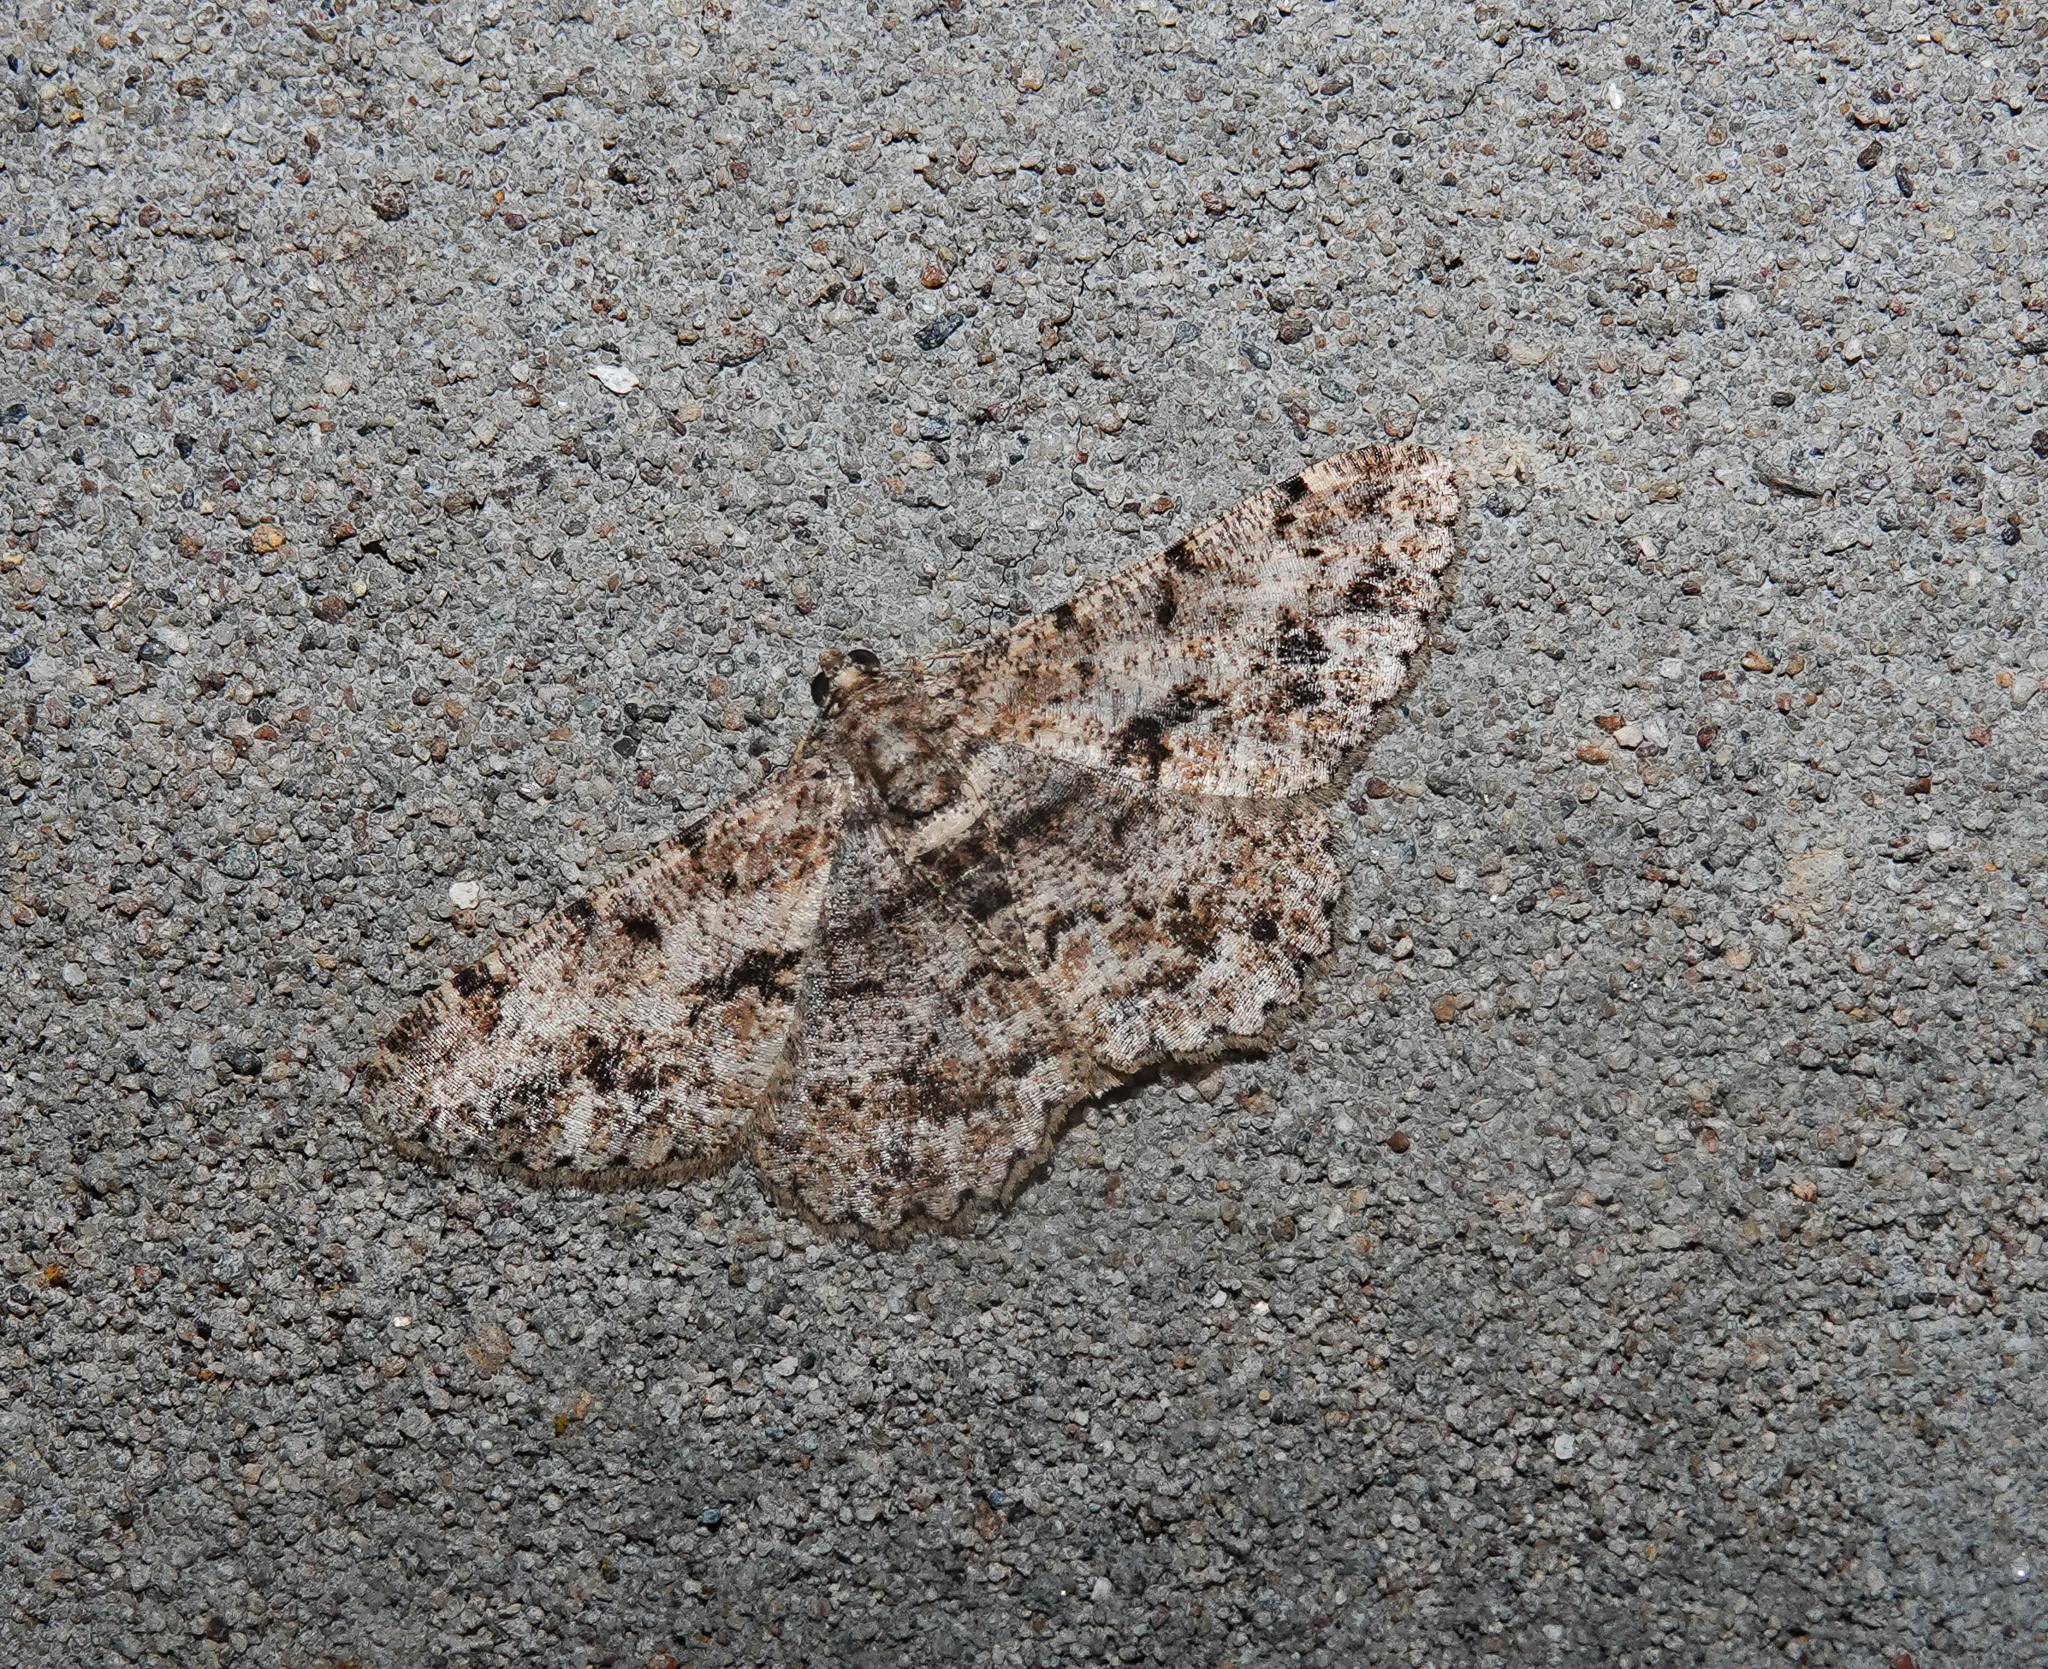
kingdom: Animalia
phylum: Arthropoda
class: Insecta
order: Lepidoptera
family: Geometridae
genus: Psilalcis
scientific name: Psilalcis breta
